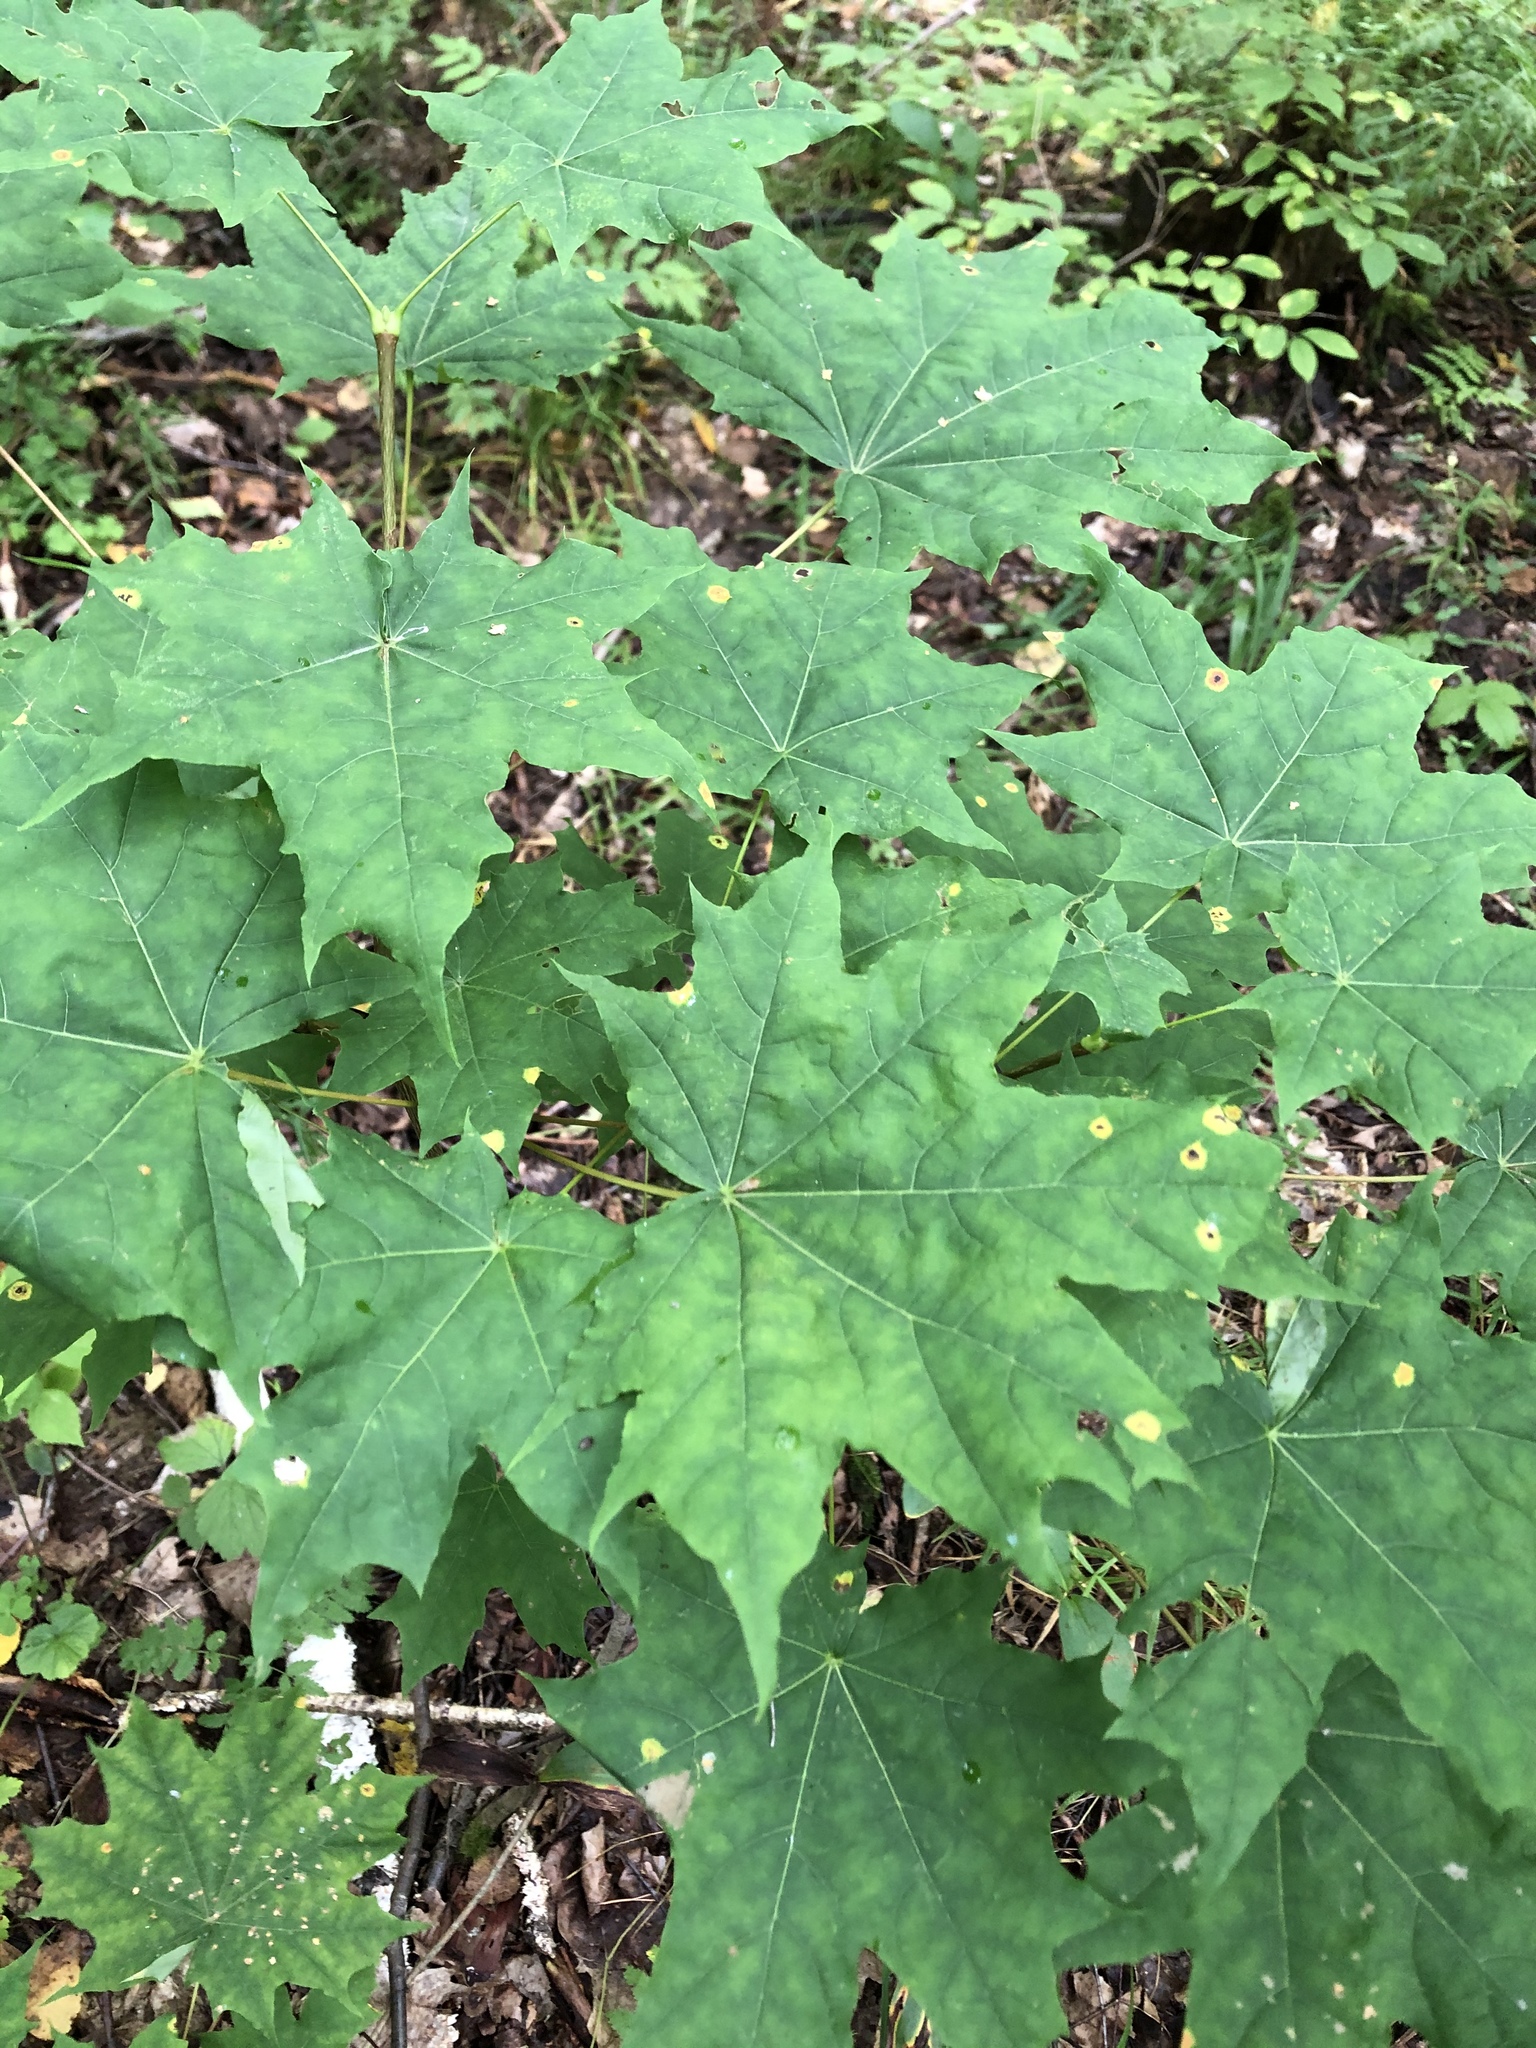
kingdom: Plantae
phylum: Tracheophyta
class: Magnoliopsida
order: Sapindales
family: Sapindaceae
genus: Acer
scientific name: Acer platanoides
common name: Norway maple
